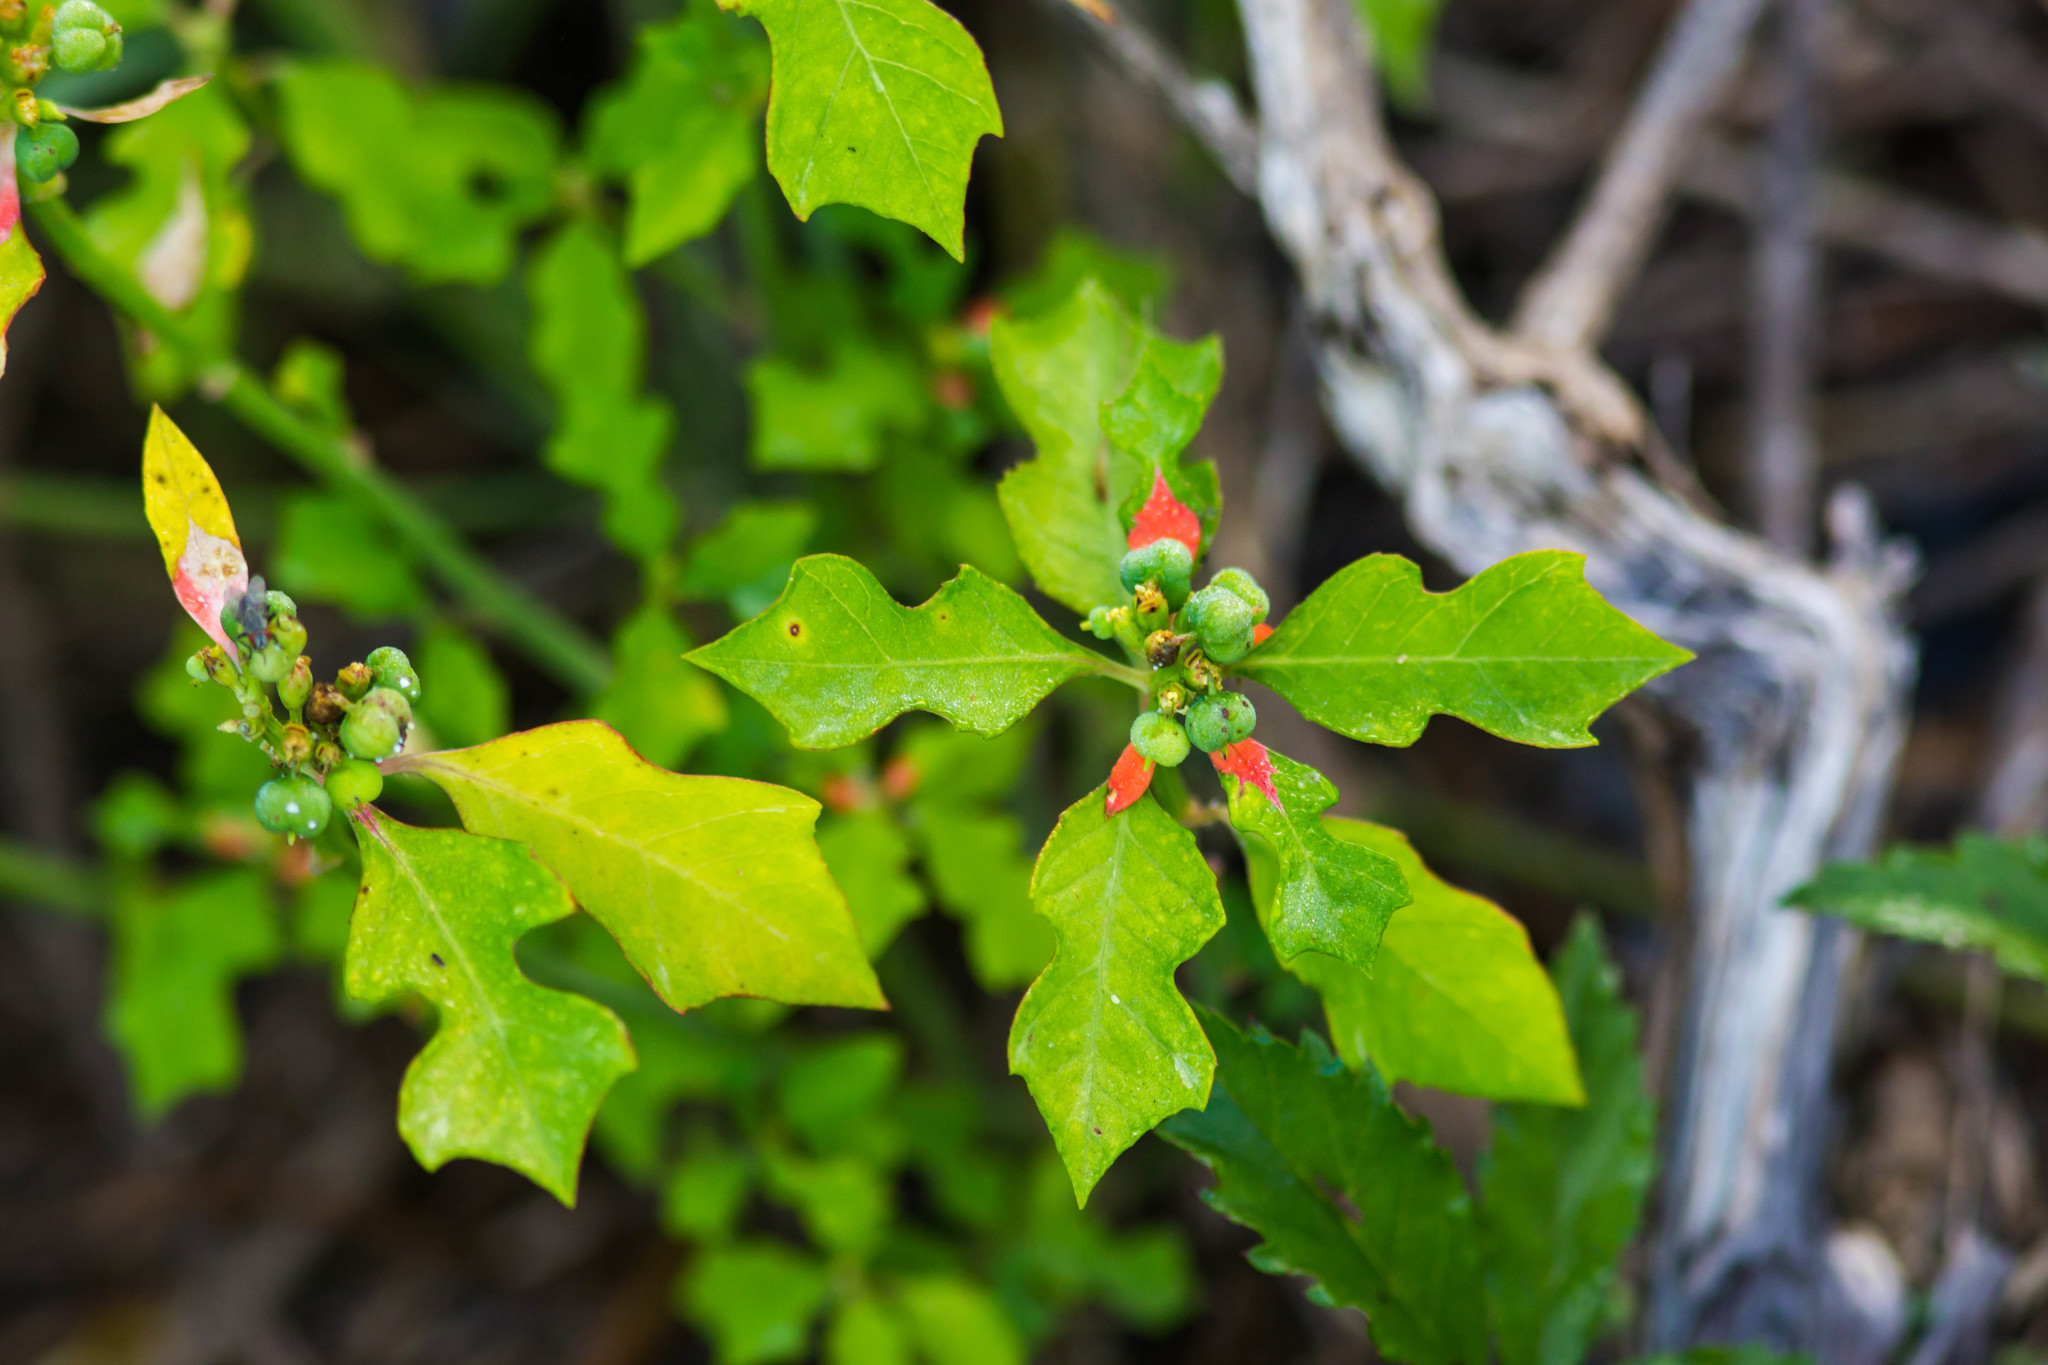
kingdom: Plantae
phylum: Tracheophyta
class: Magnoliopsida
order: Malpighiales
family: Euphorbiaceae
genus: Euphorbia
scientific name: Euphorbia heterophylla
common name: Mexican fireplant
